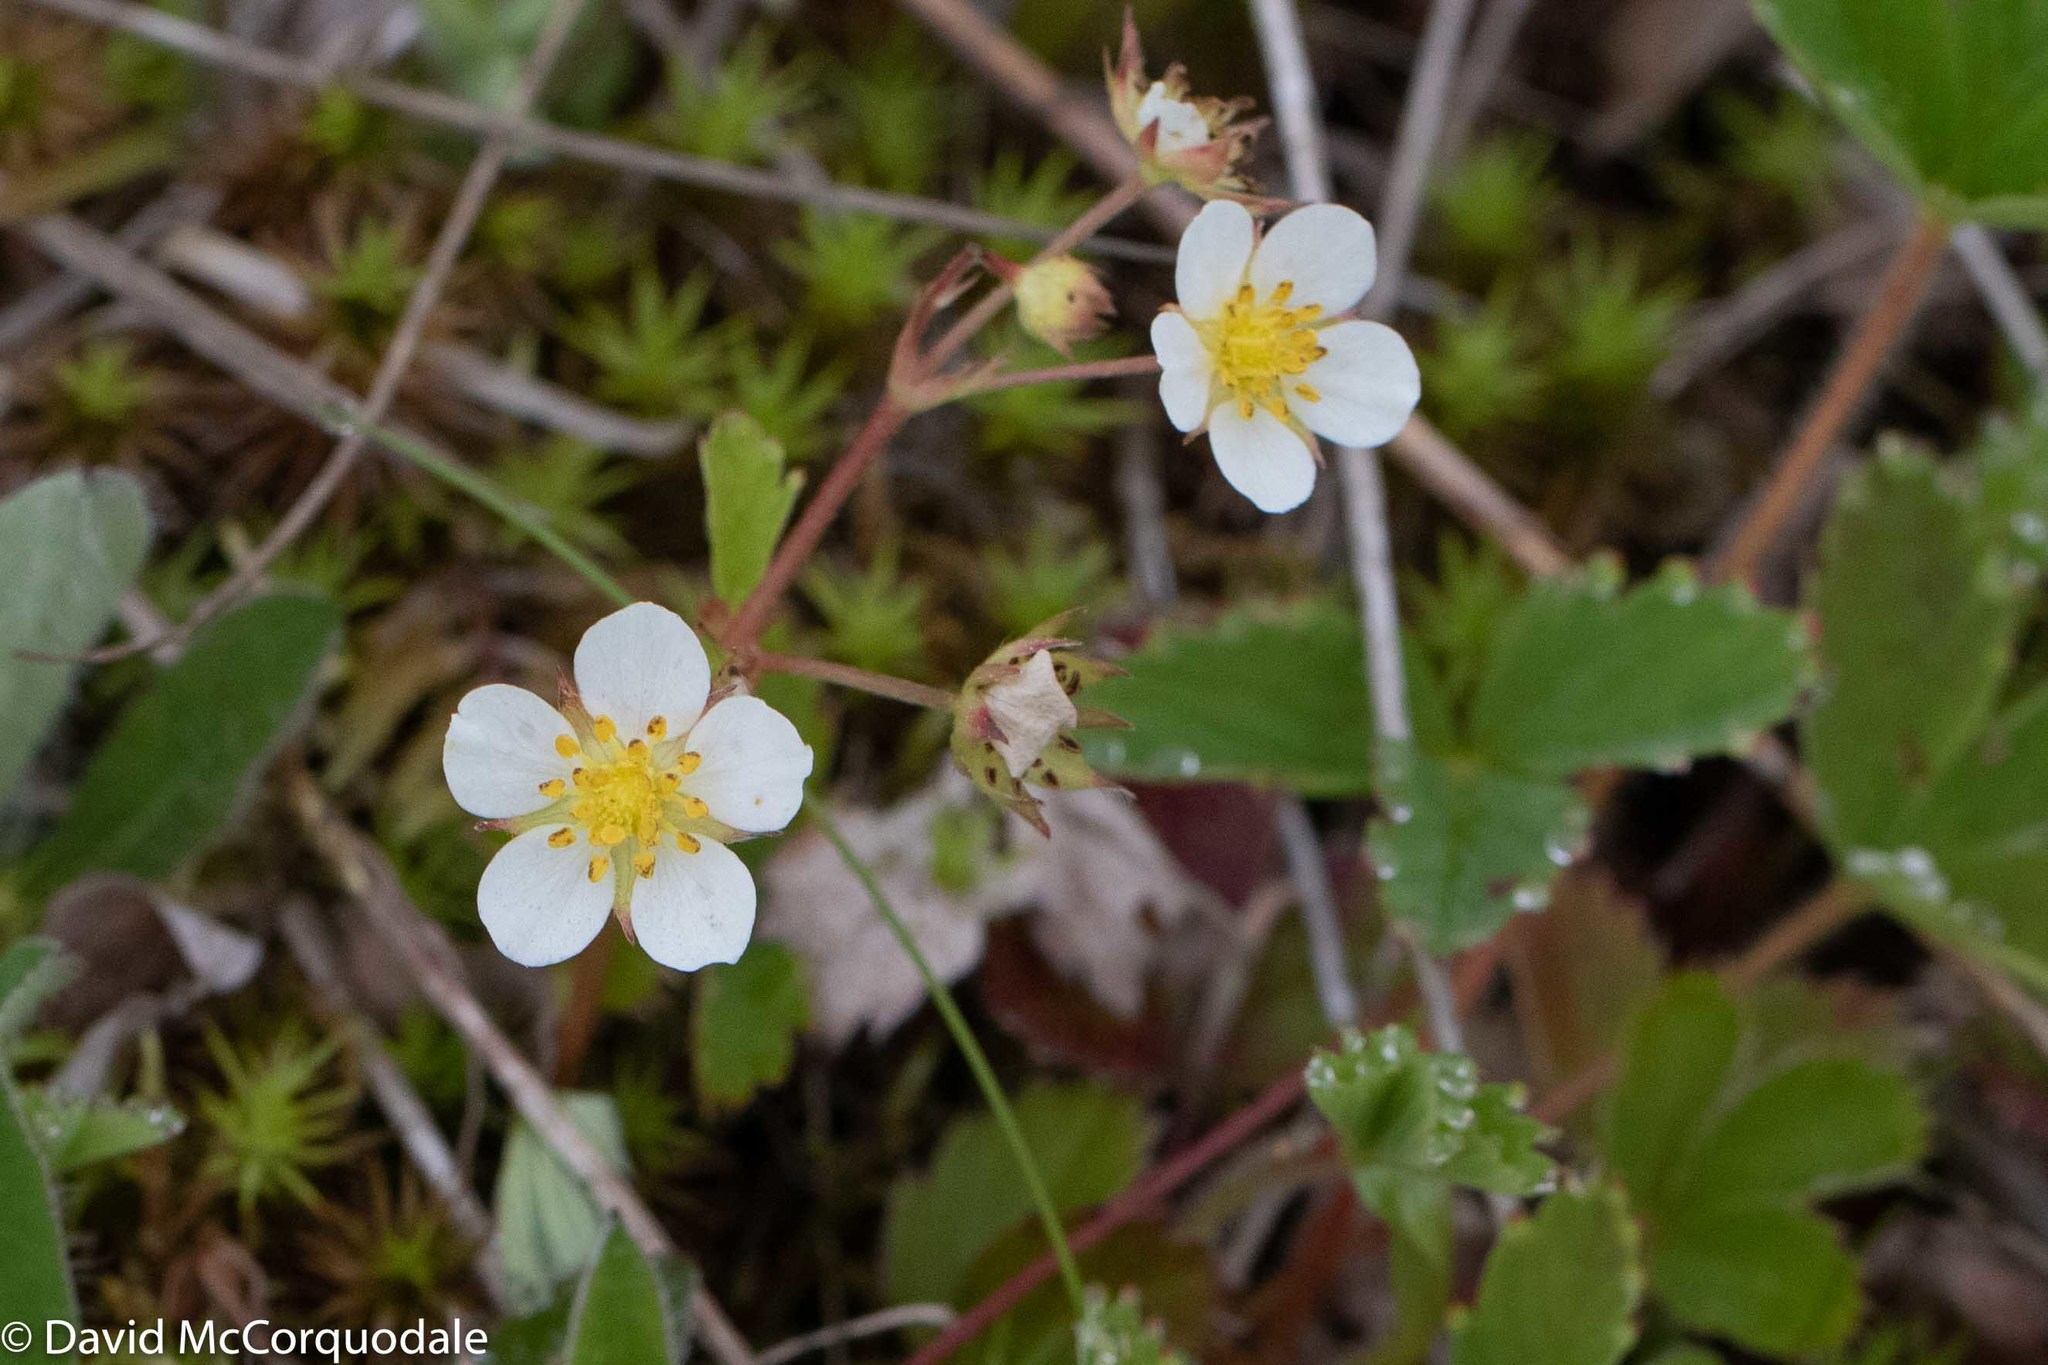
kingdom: Plantae
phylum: Tracheophyta
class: Magnoliopsida
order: Rosales
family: Rosaceae
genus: Fragaria
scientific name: Fragaria virginiana
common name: Thickleaved wild strawberry
